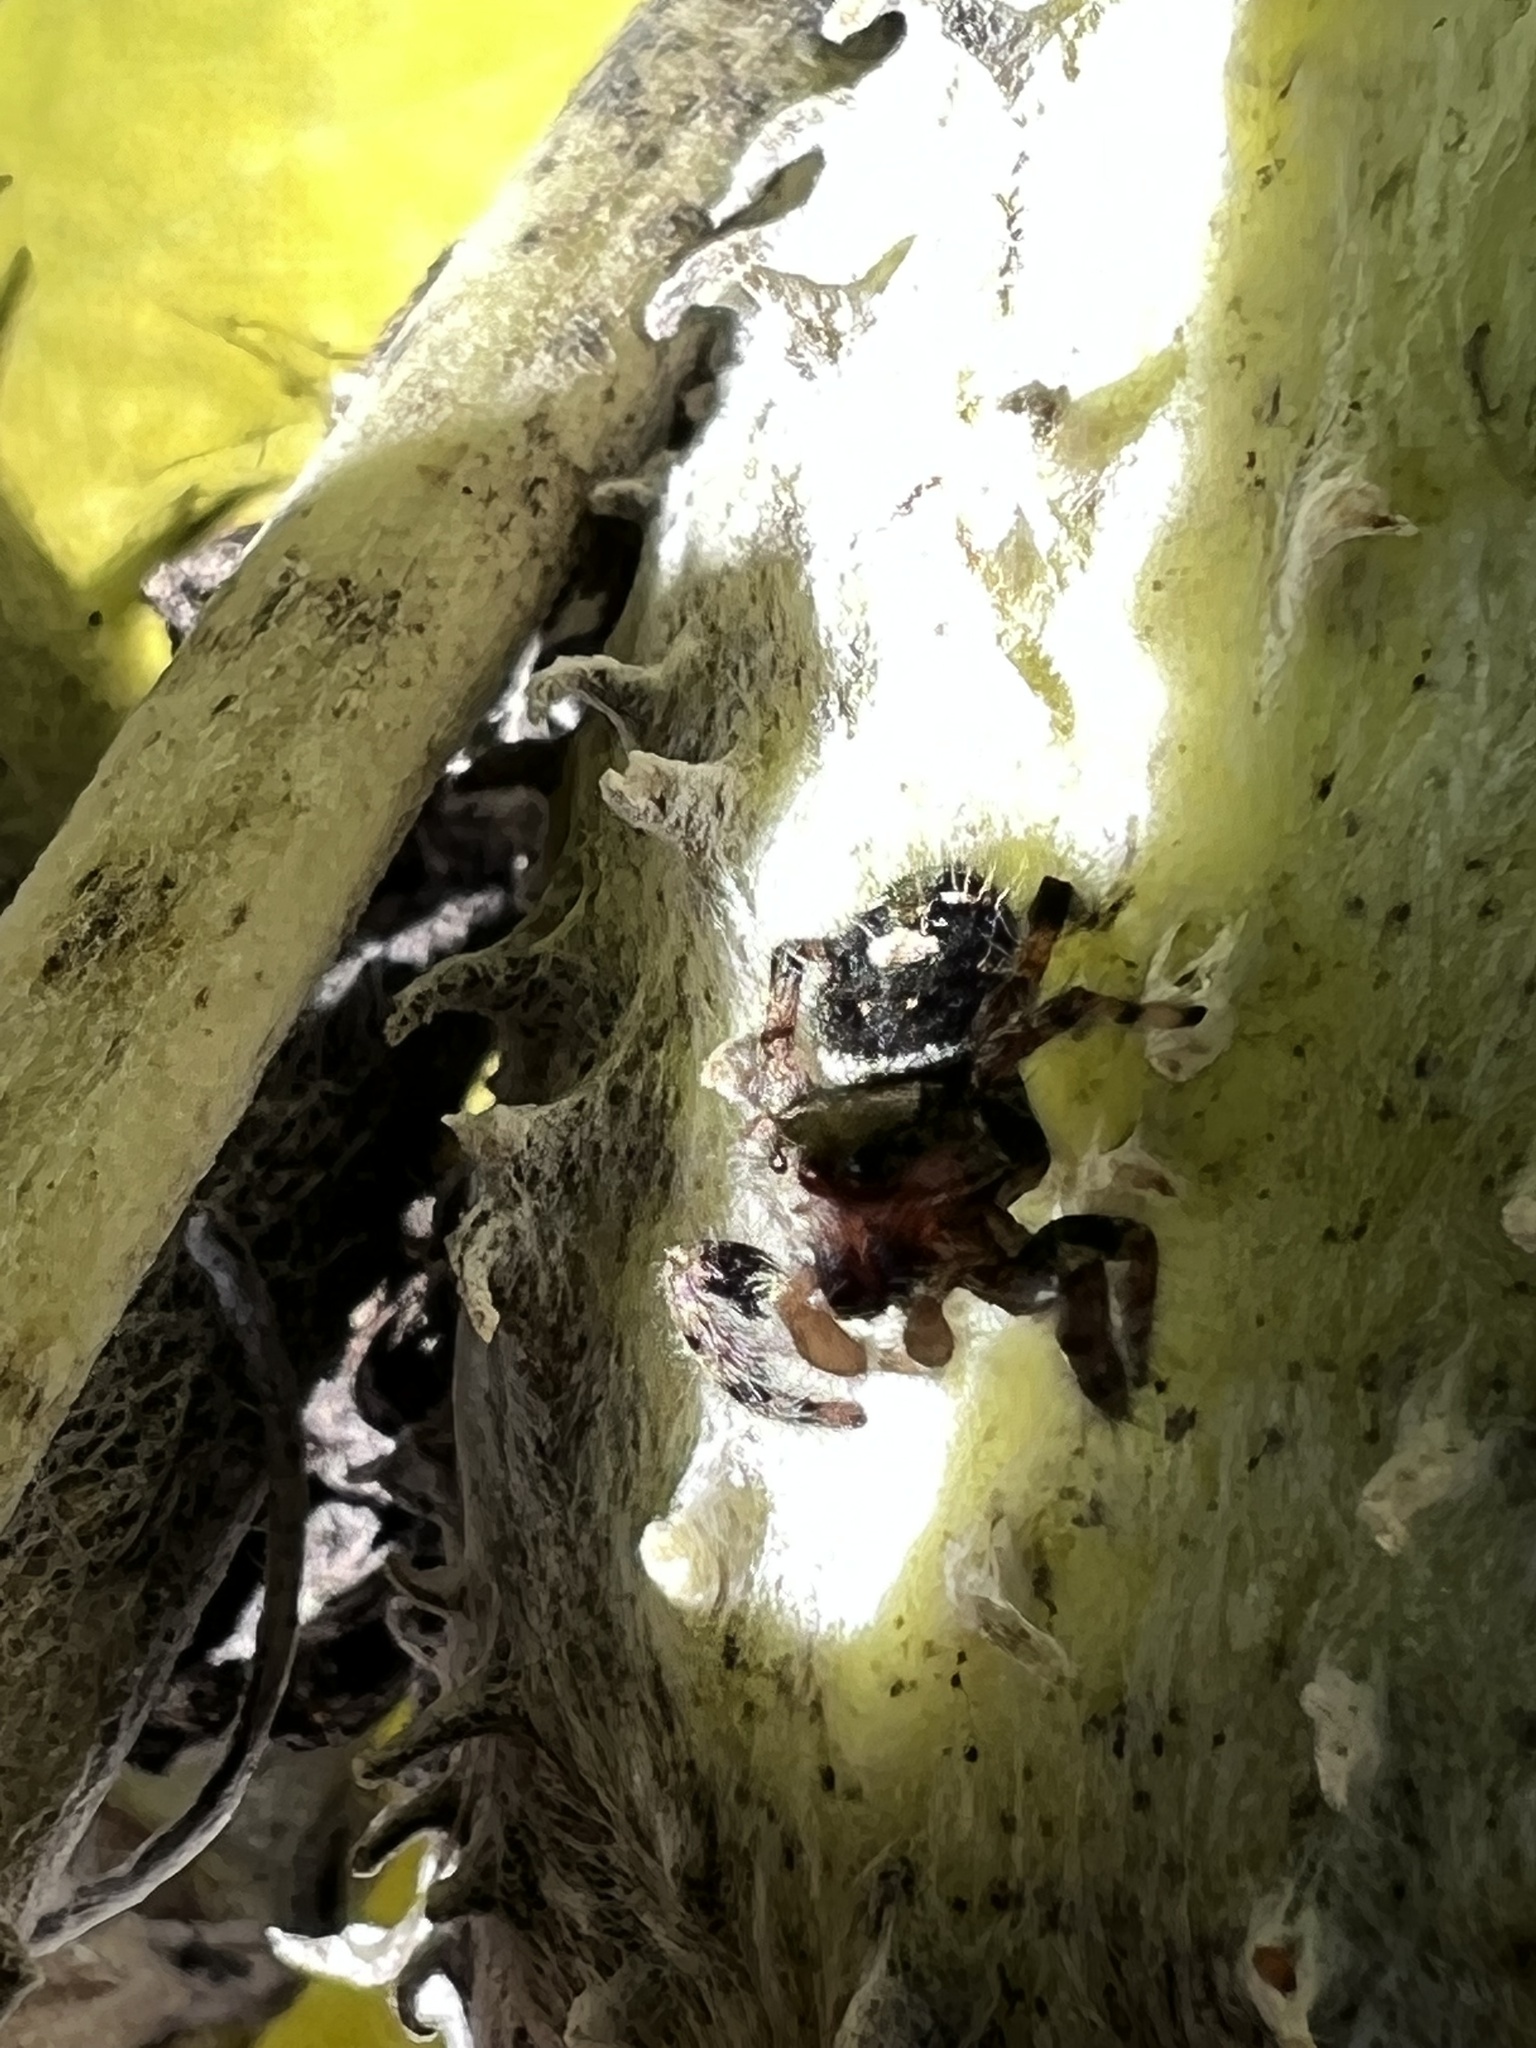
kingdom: Animalia
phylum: Arthropoda
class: Arachnida
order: Araneae
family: Salticidae
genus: Phidippus
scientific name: Phidippus audax
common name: Bold jumper
